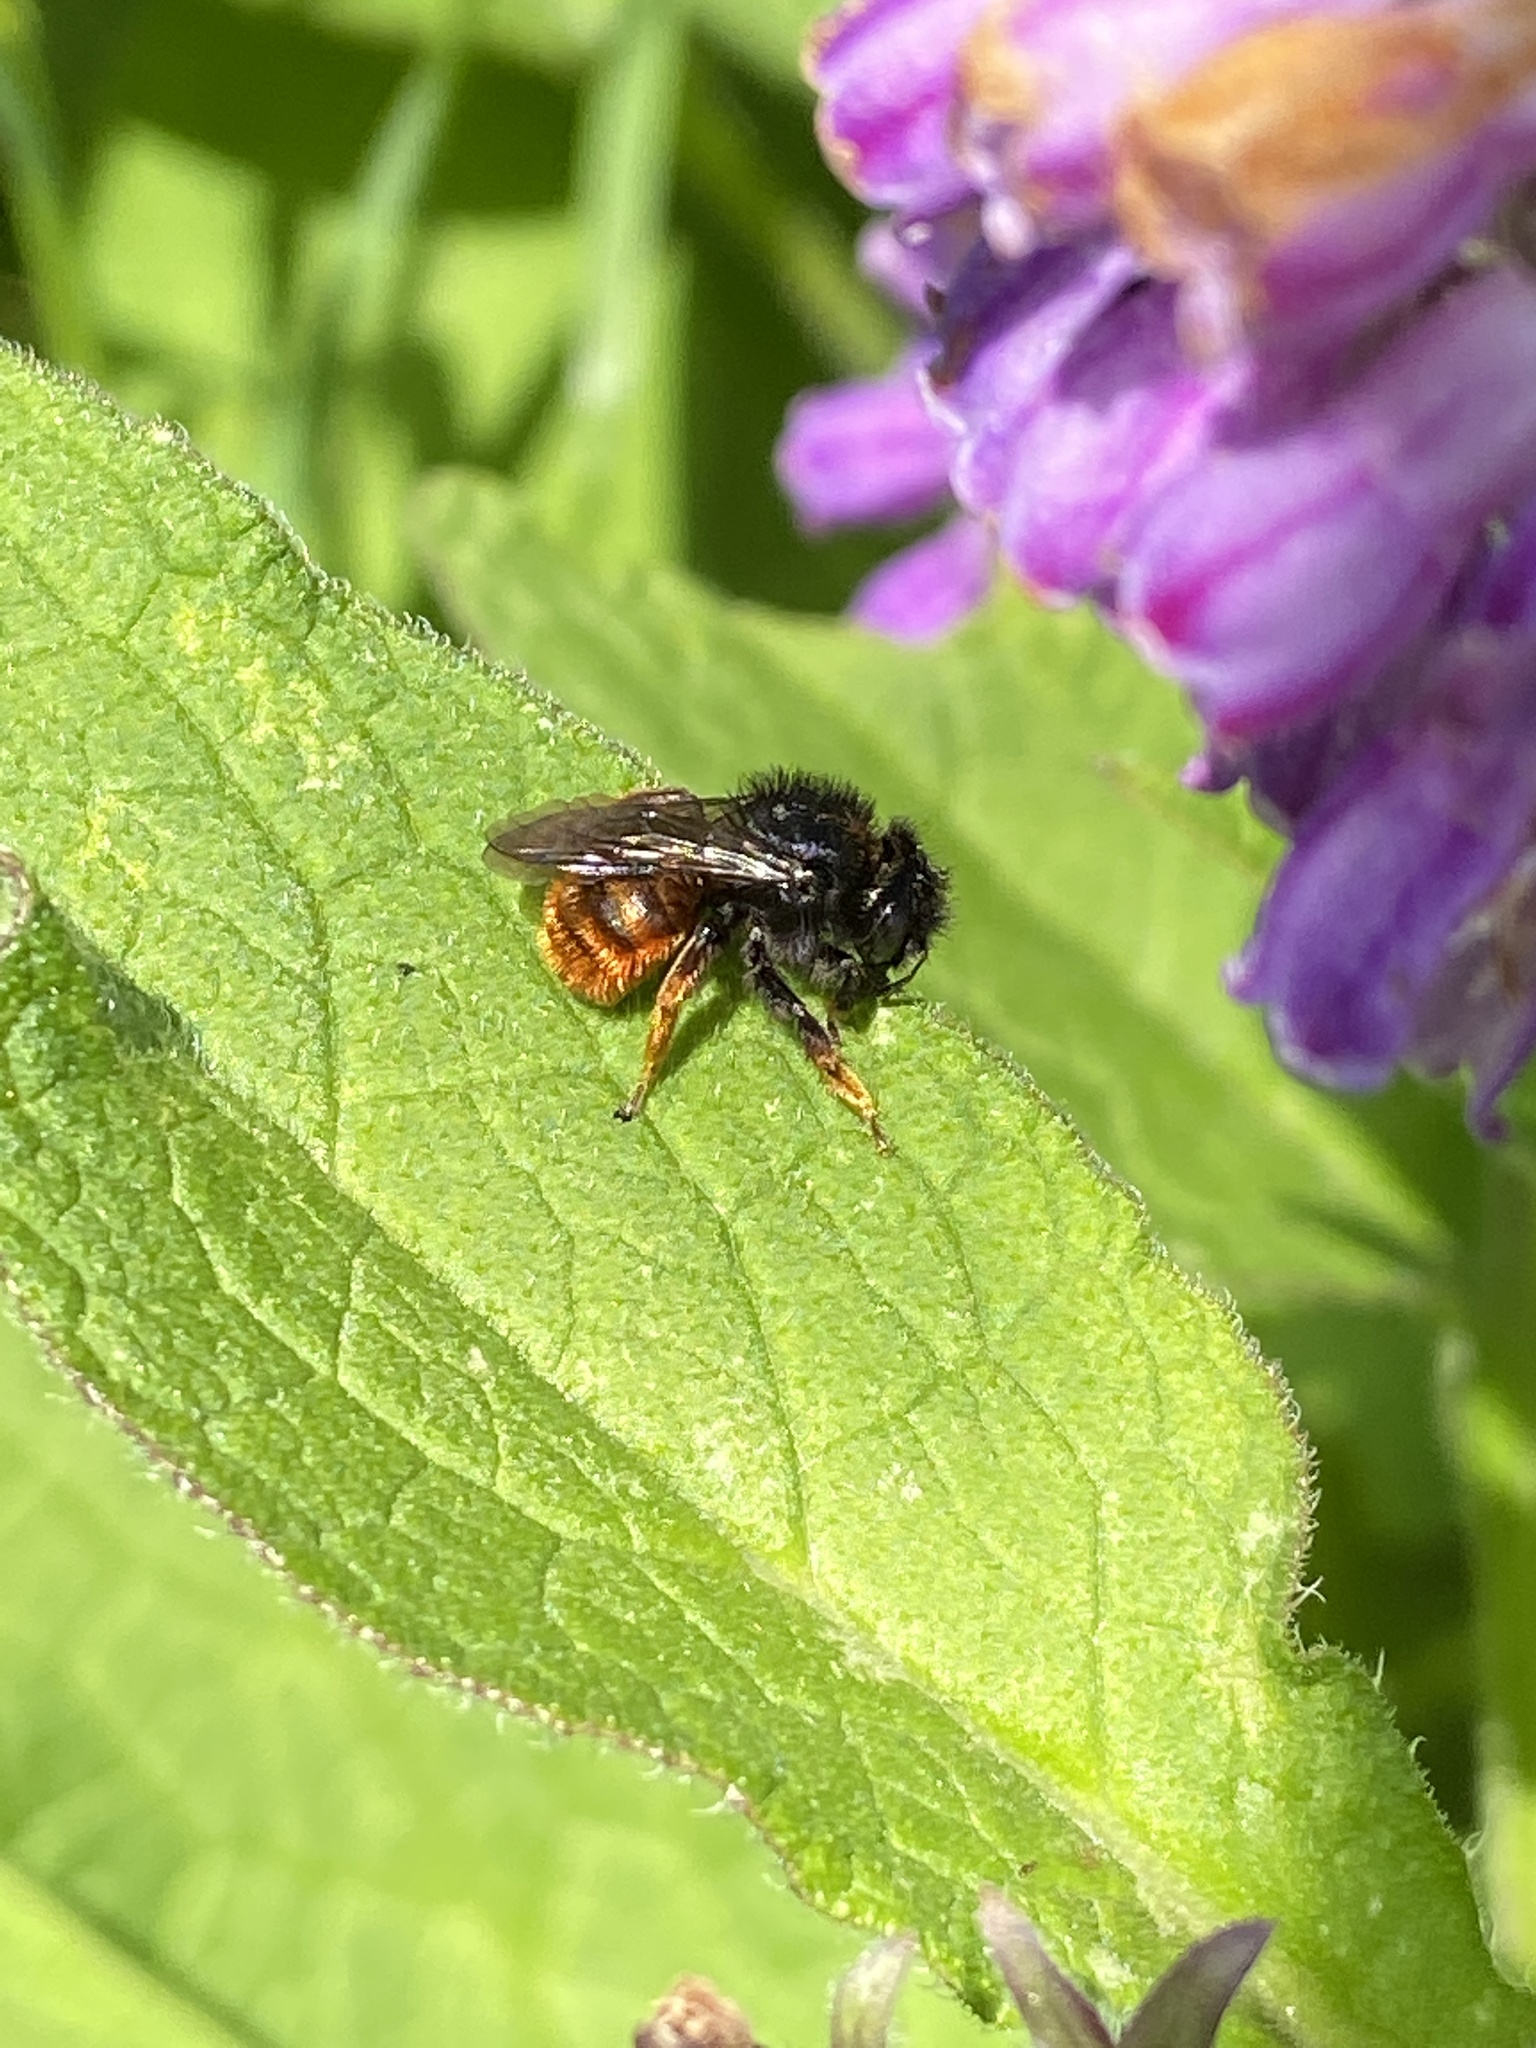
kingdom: Animalia
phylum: Arthropoda
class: Insecta
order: Hymenoptera
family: Megachilidae
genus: Osmia
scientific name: Osmia bicolor
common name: Red-tailed mason bee
